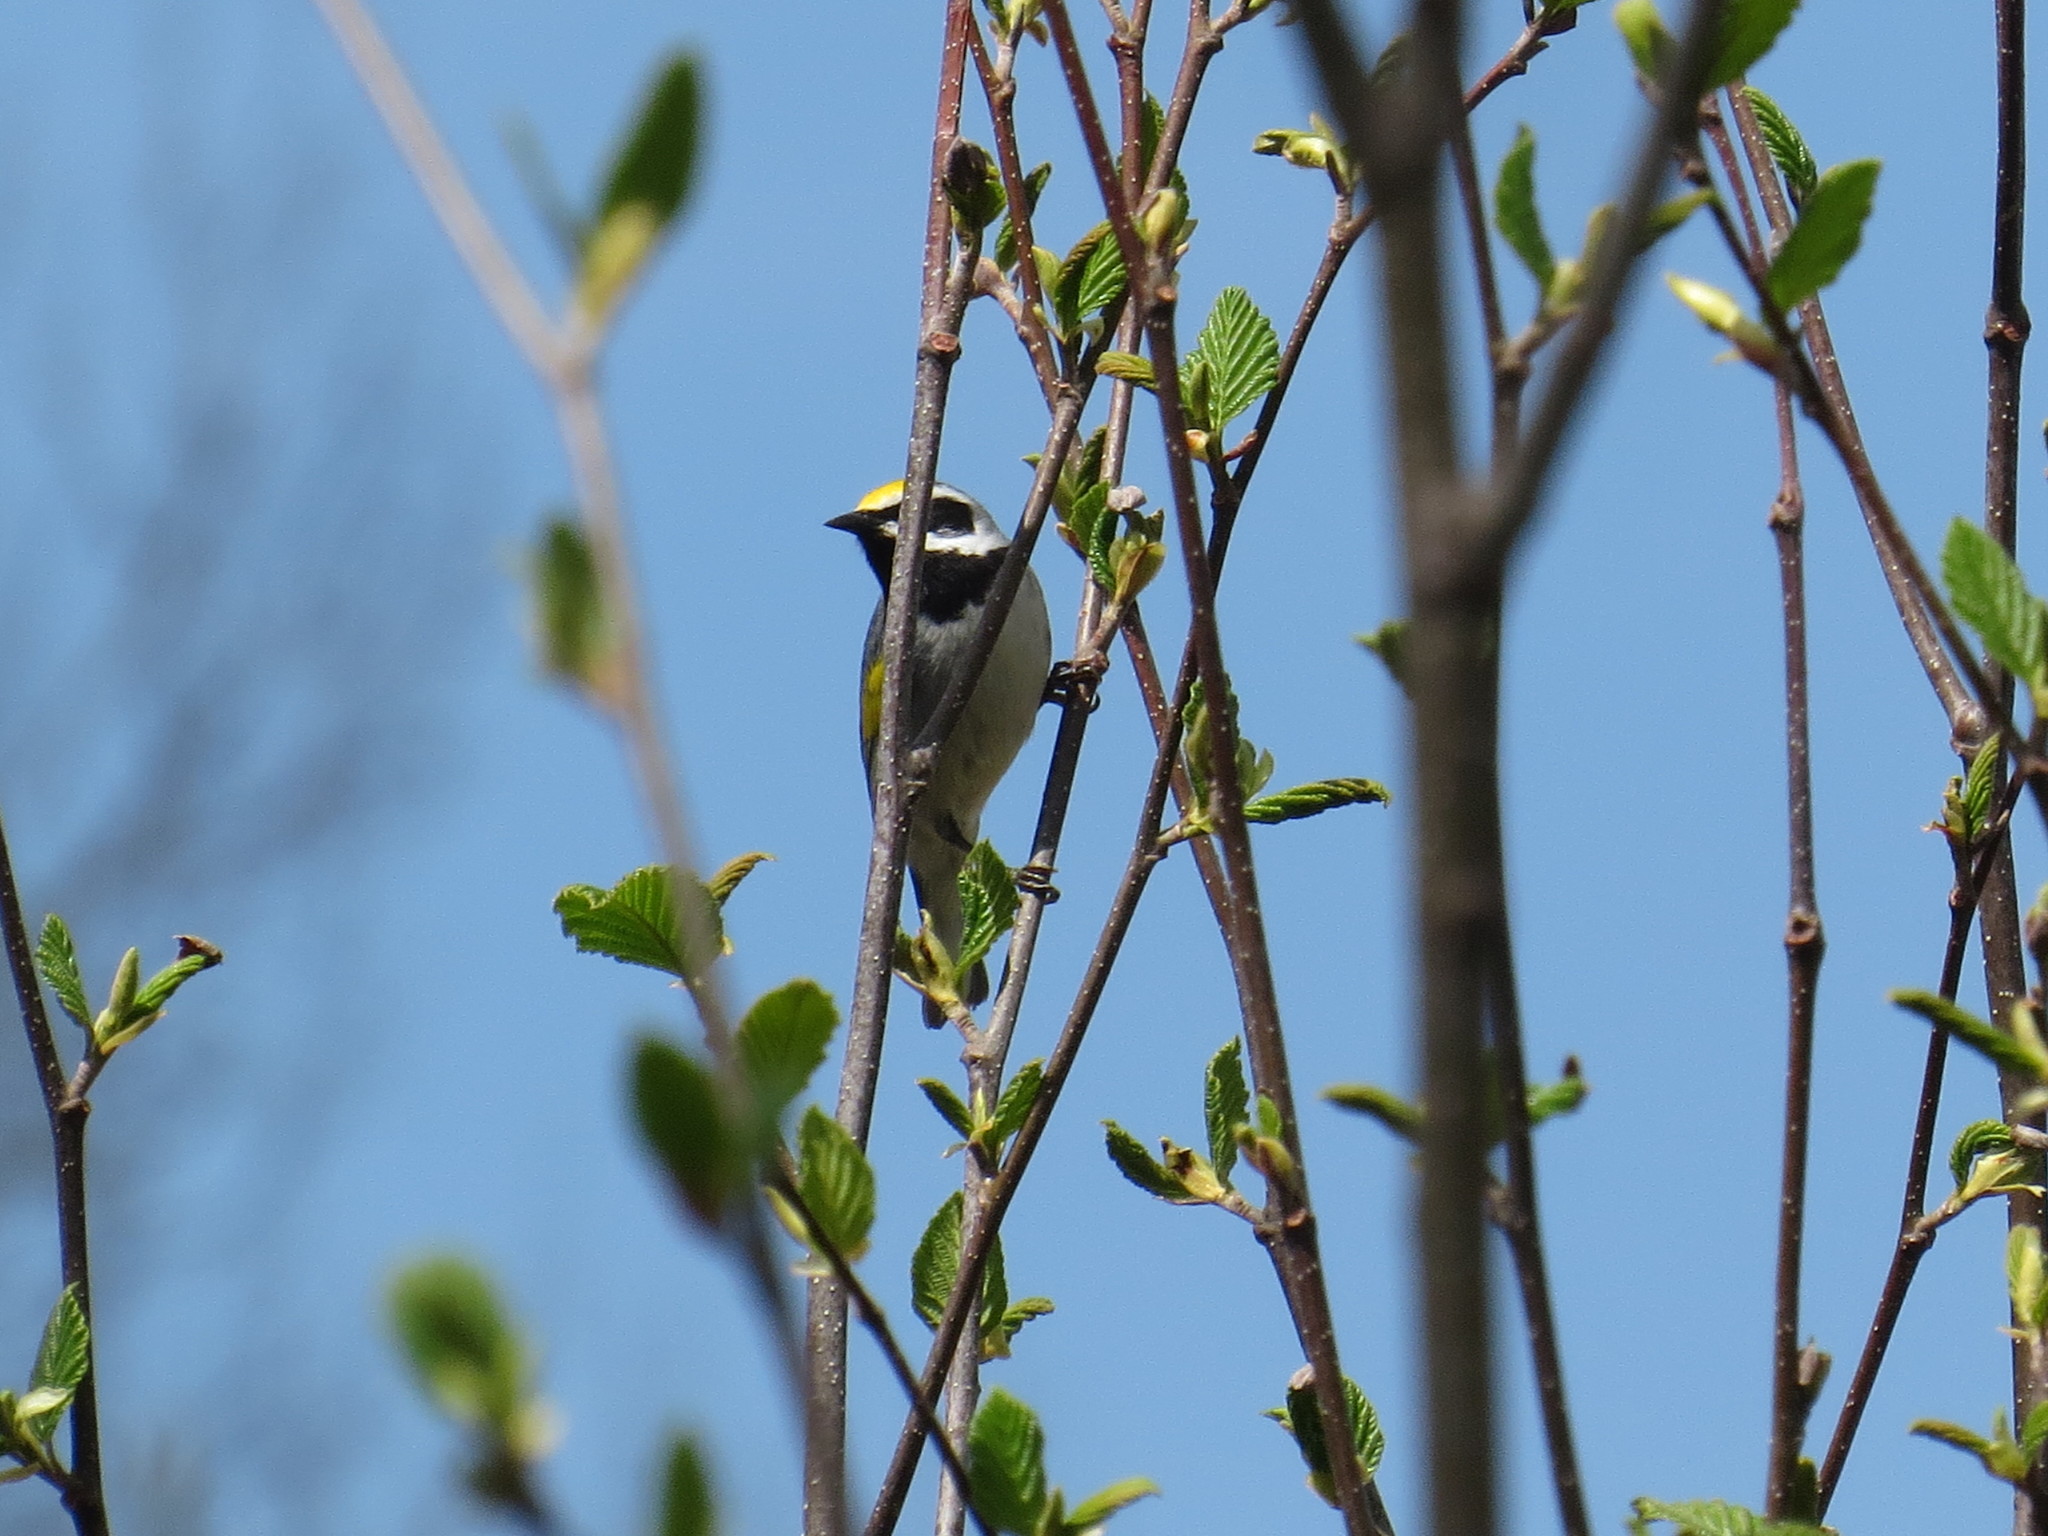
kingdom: Animalia
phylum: Chordata
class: Aves
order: Passeriformes
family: Parulidae
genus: Vermivora
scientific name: Vermivora chrysoptera
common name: Golden-winged warbler
